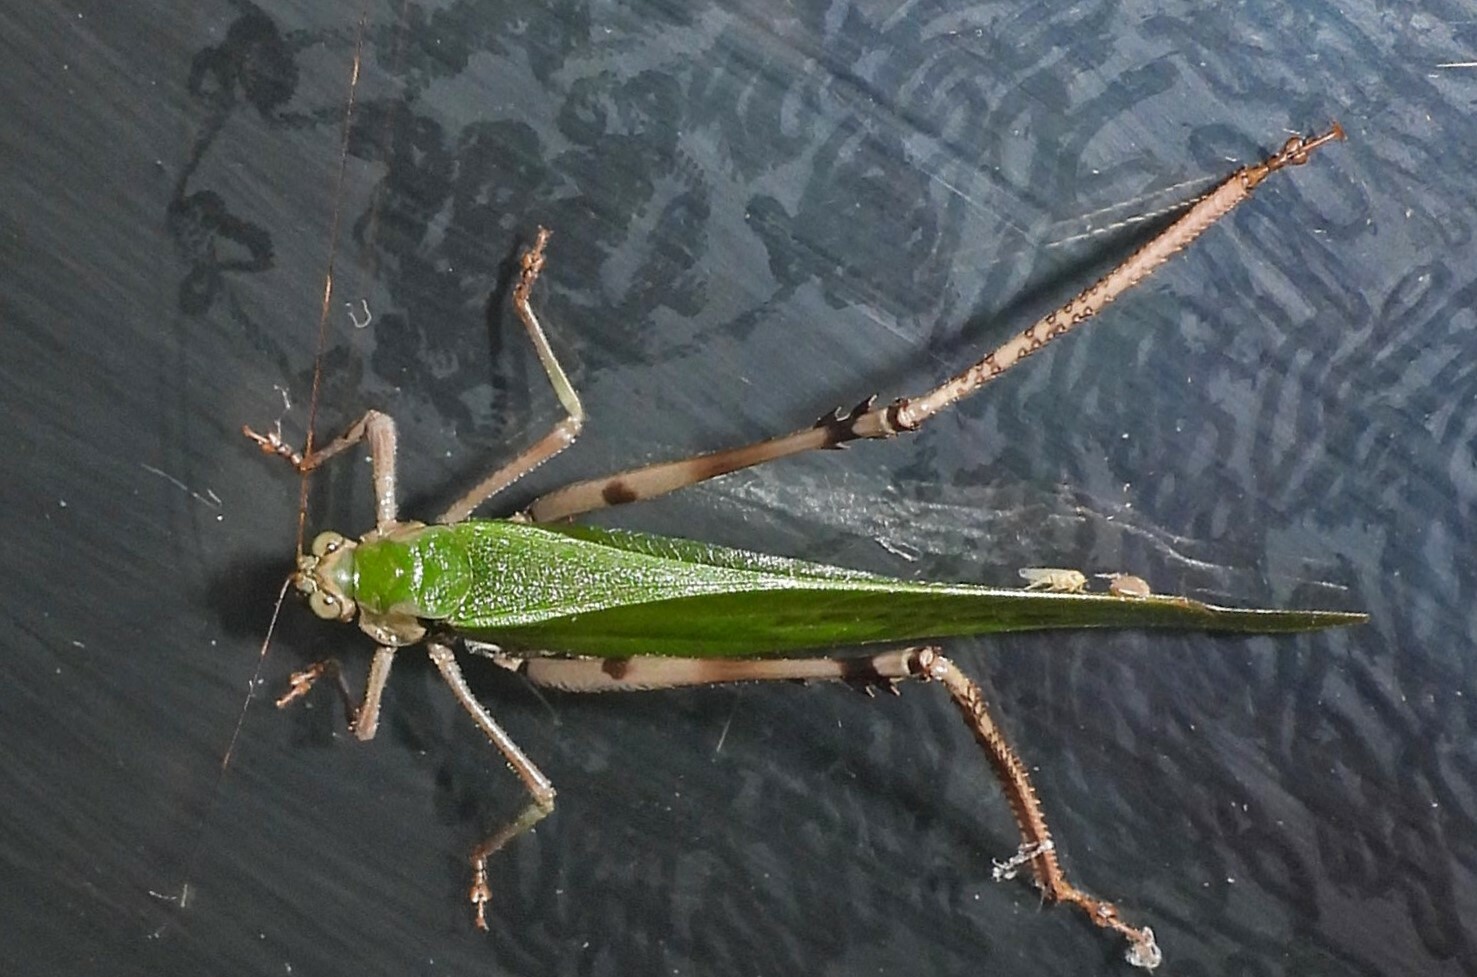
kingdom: Animalia
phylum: Arthropoda
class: Insecta
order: Orthoptera
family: Tettigoniidae
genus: Vellea
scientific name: Vellea cruenta
